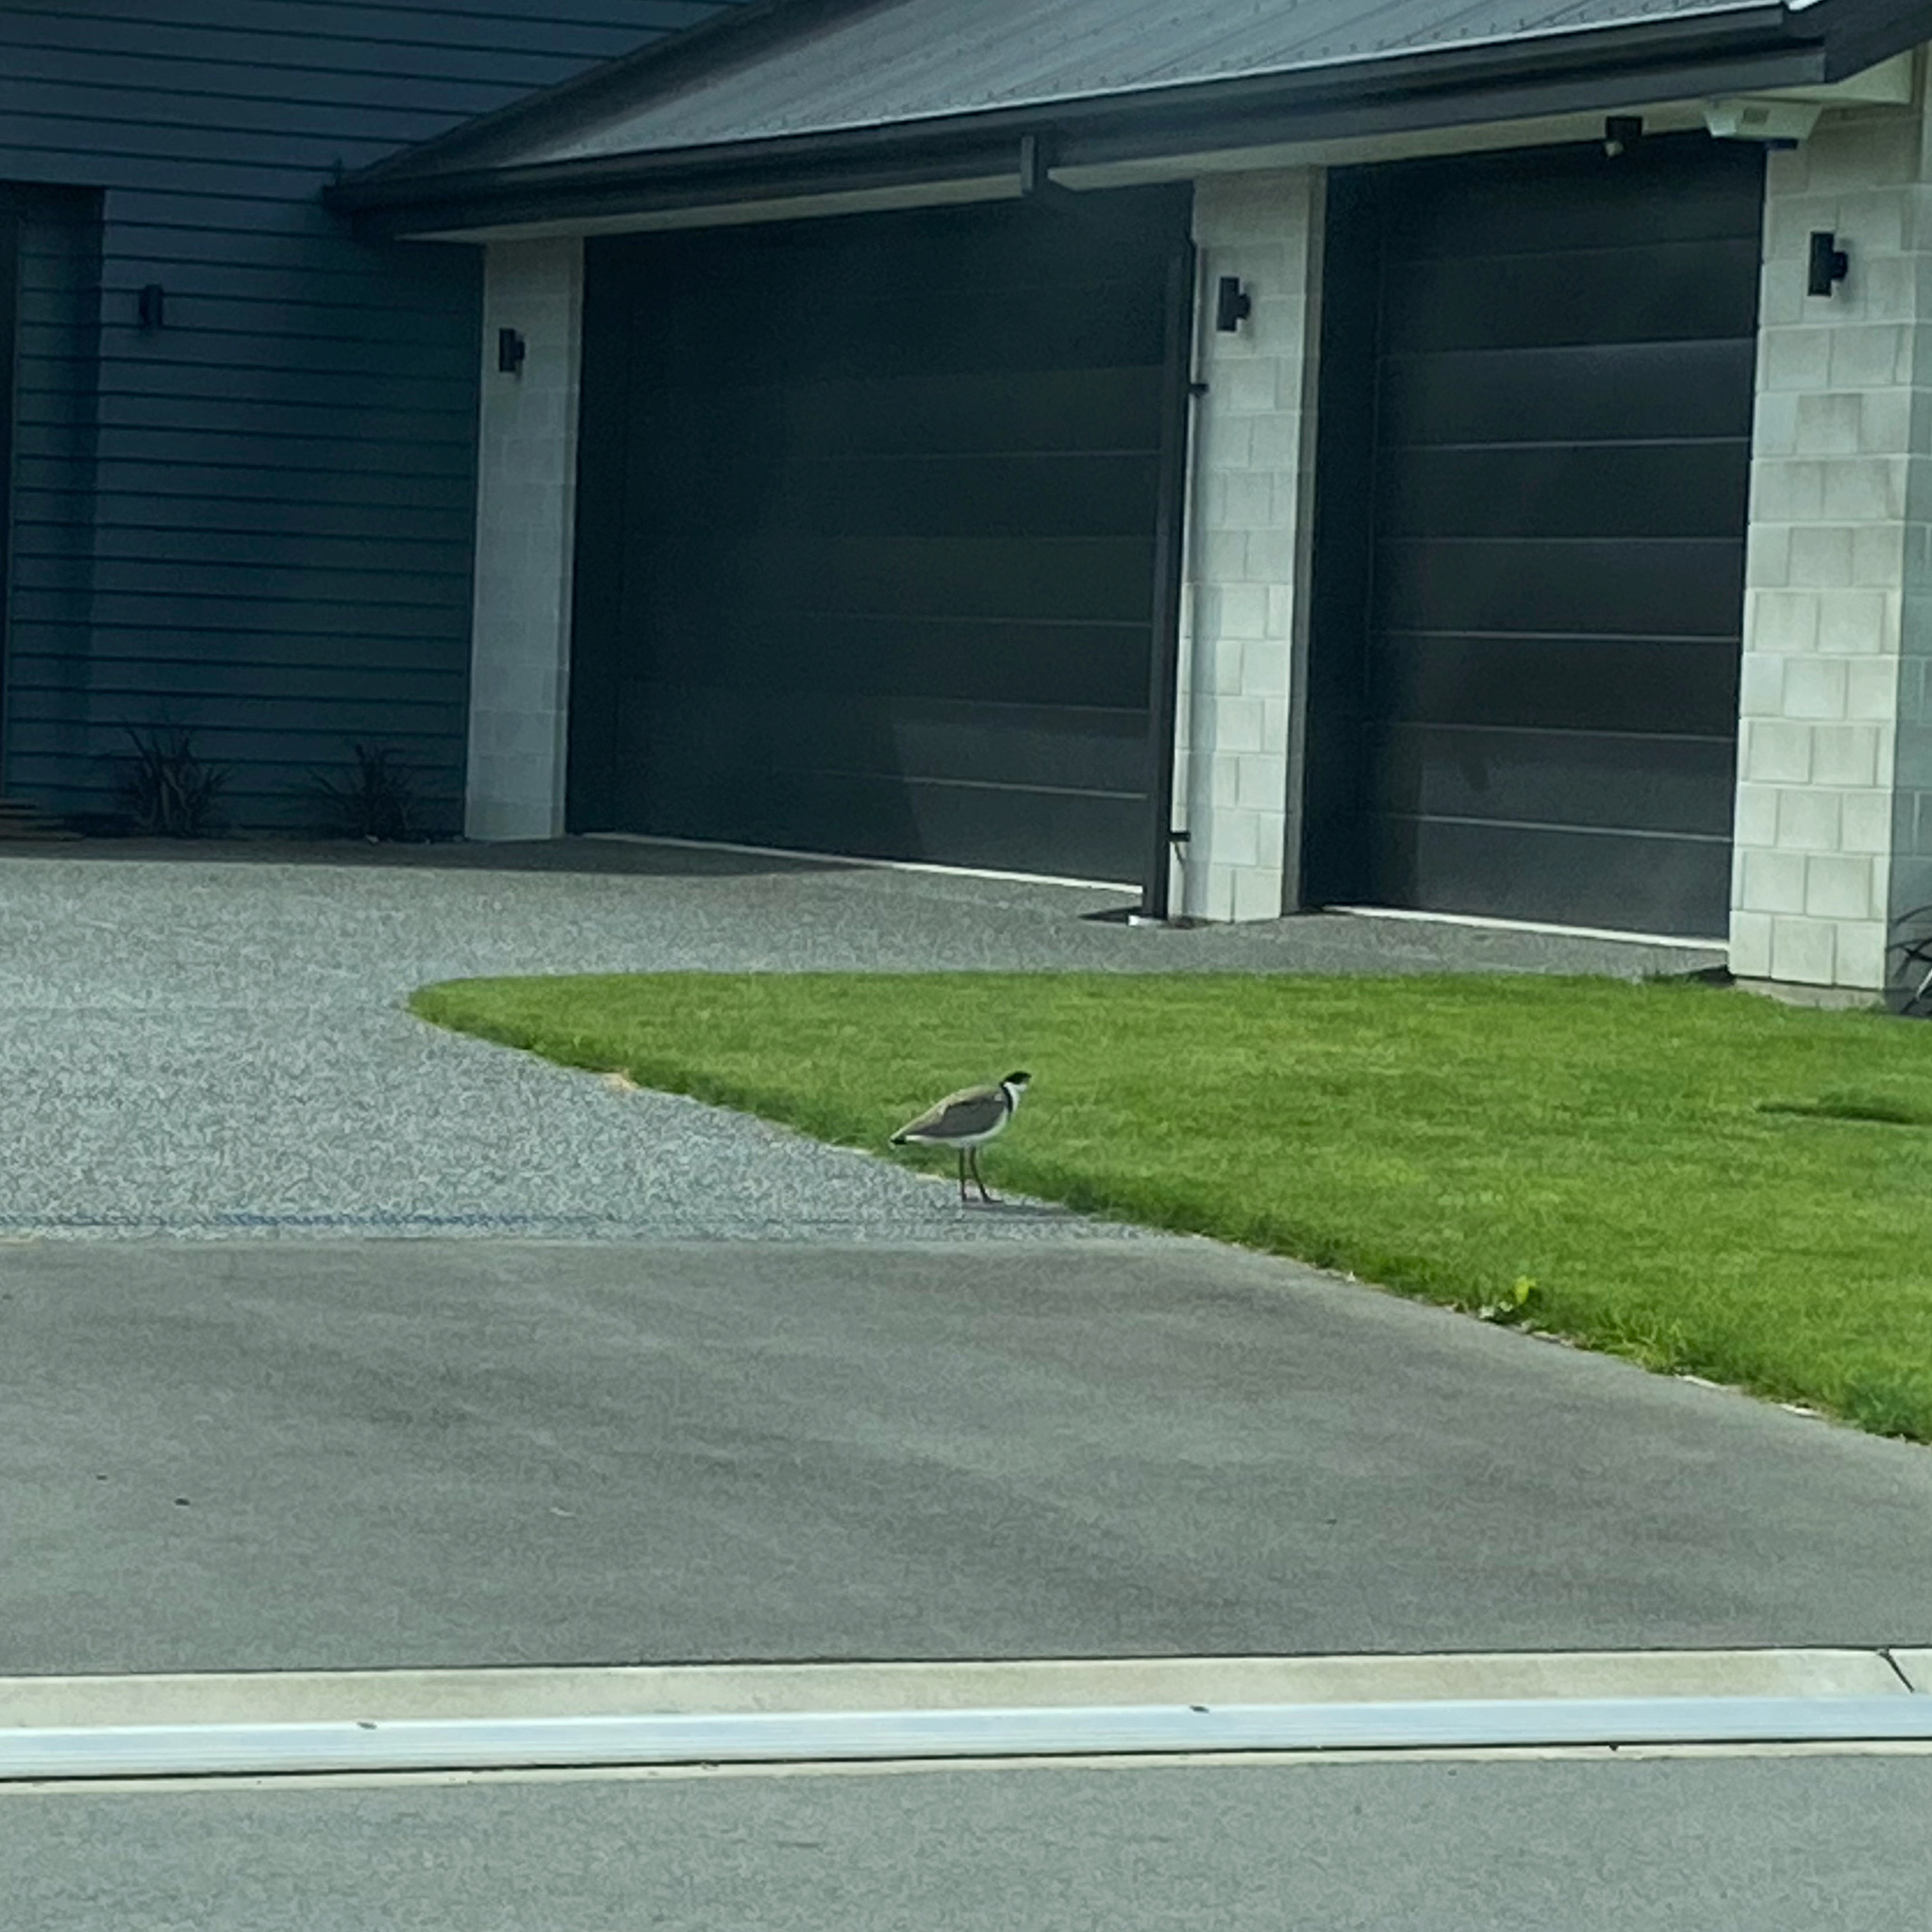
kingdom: Animalia
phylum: Chordata
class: Aves
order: Charadriiformes
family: Charadriidae
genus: Vanellus
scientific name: Vanellus miles
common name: Masked lapwing
